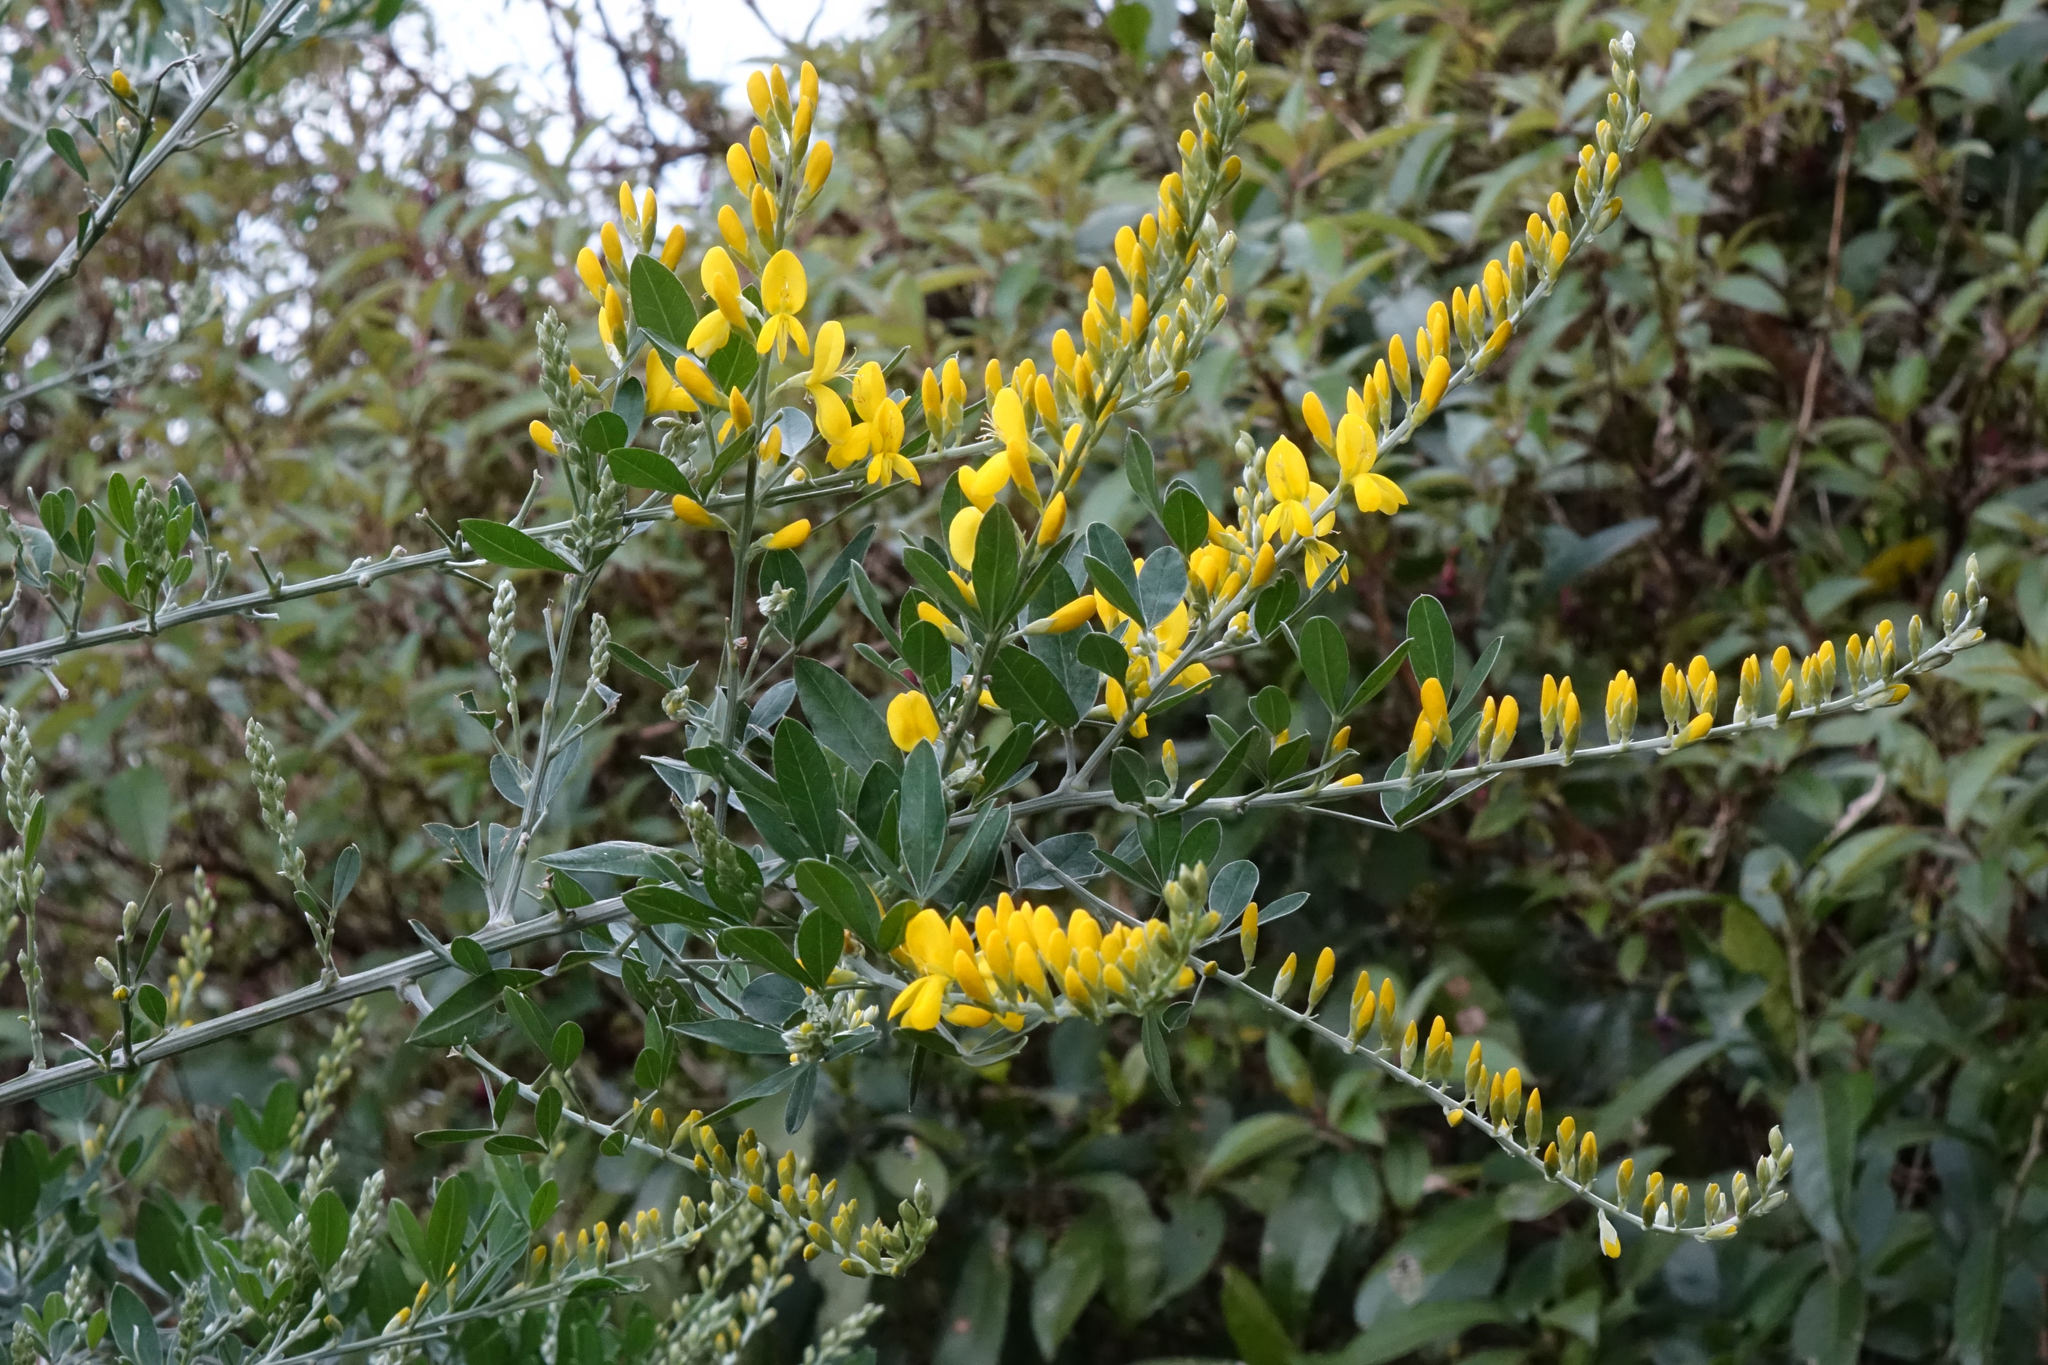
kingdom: Plantae
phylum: Tracheophyta
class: Magnoliopsida
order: Fabales
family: Fabaceae
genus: Genista
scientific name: Genista stenopetala
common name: Leafy broom
